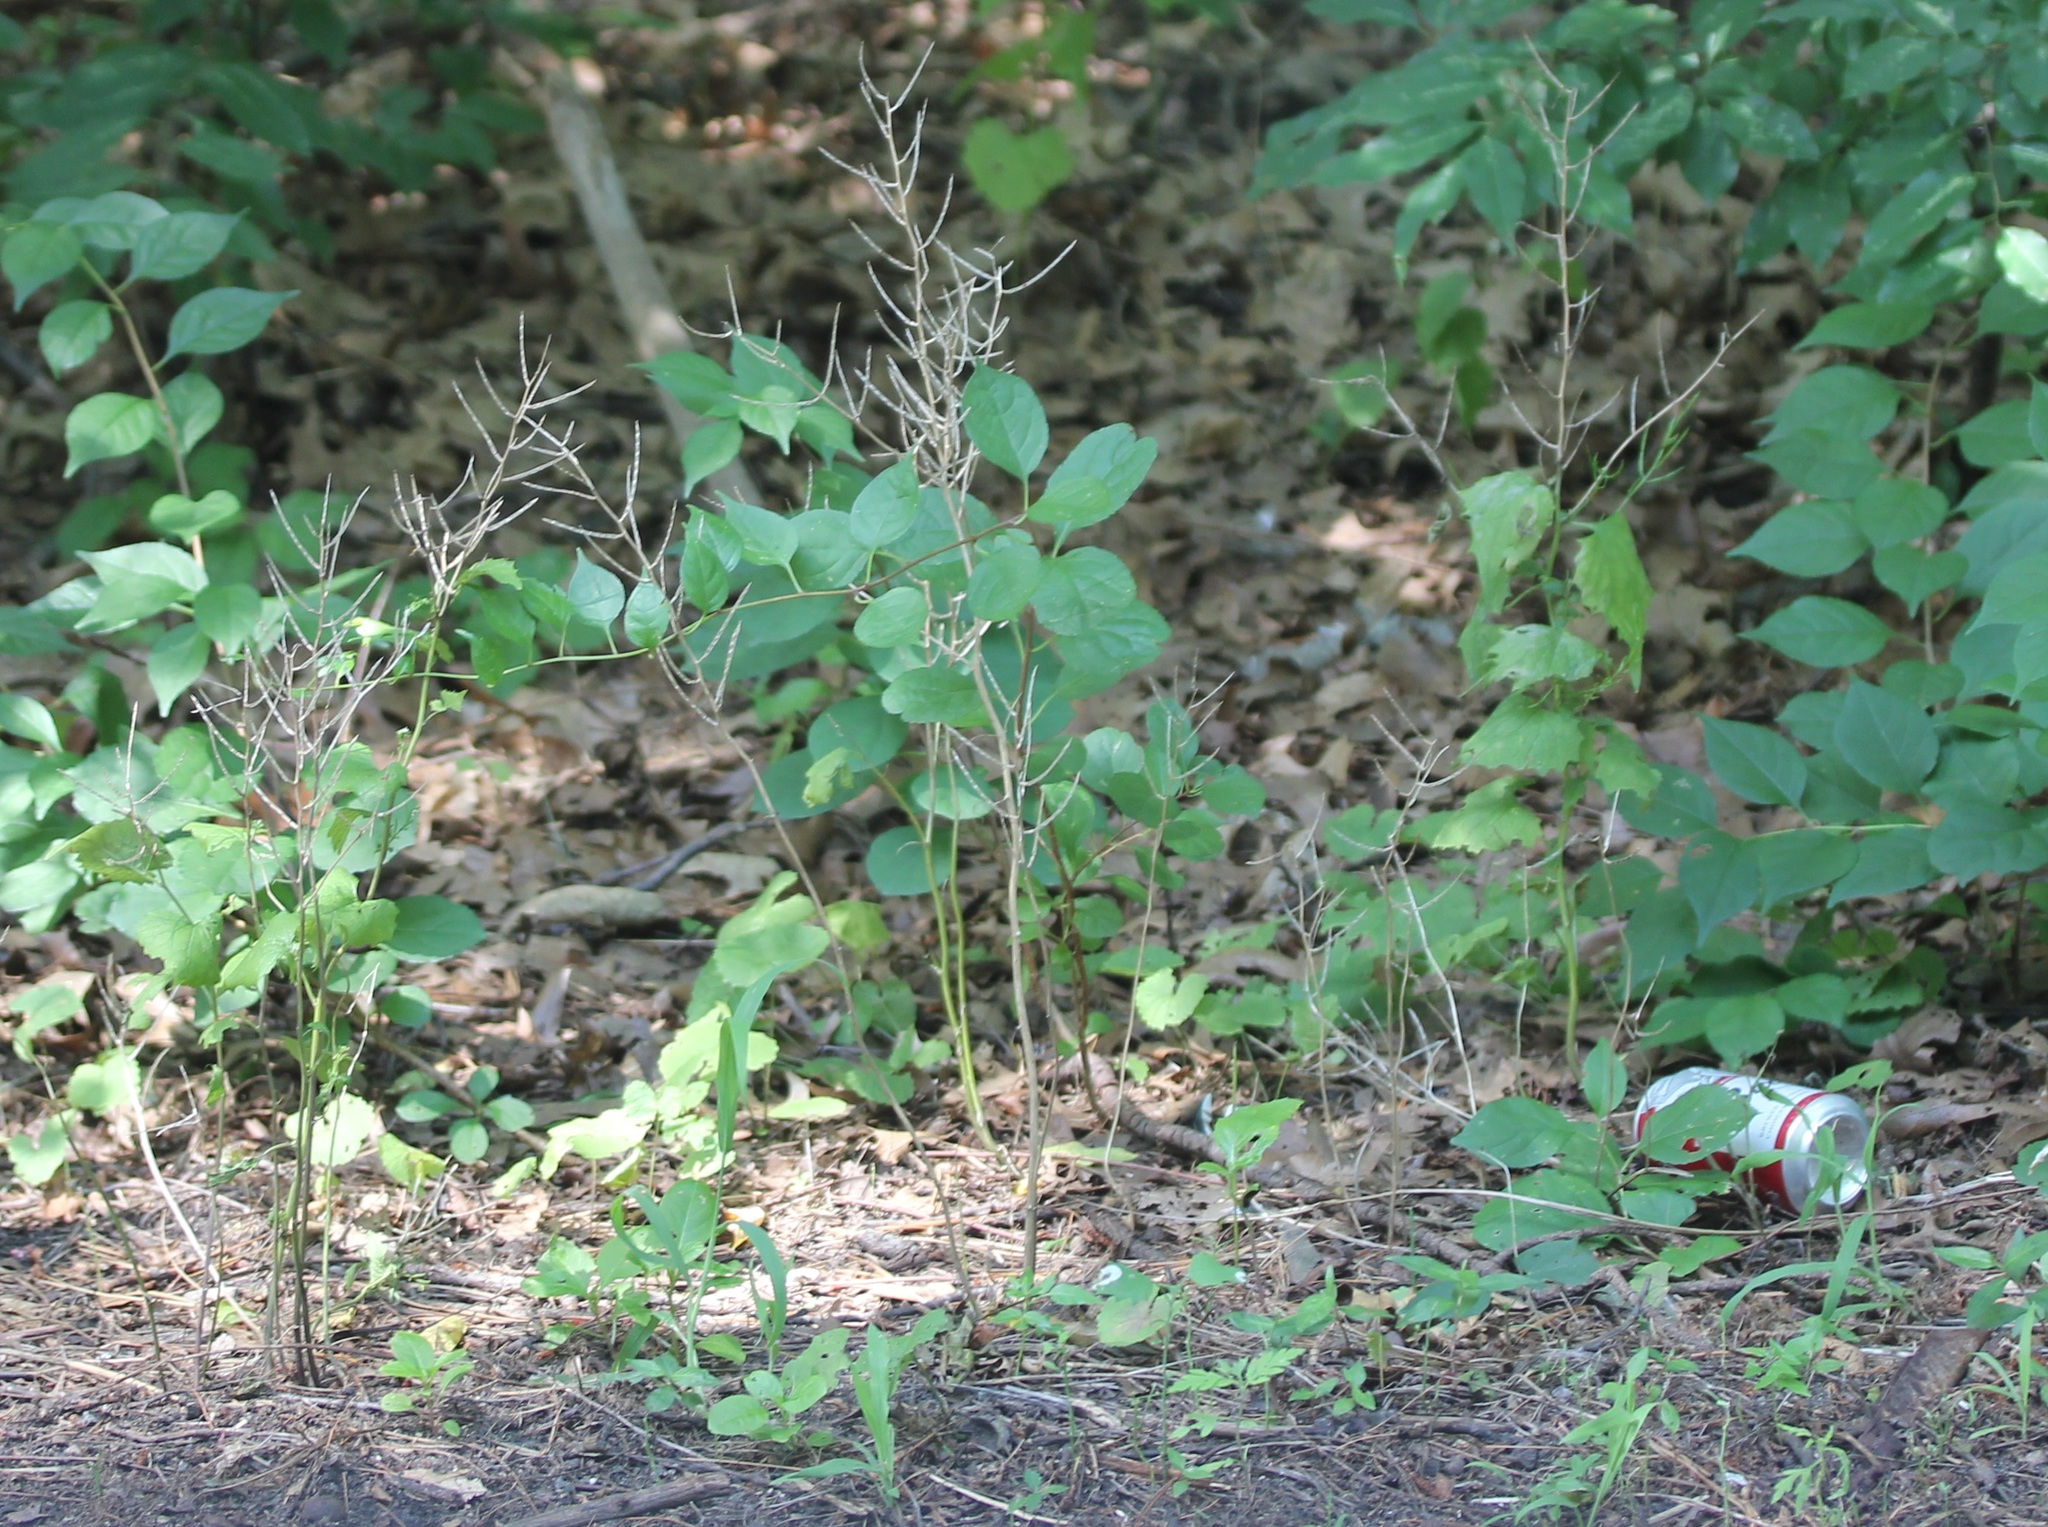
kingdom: Plantae
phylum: Tracheophyta
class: Magnoliopsida
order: Brassicales
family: Brassicaceae
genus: Alliaria
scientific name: Alliaria petiolata
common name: Garlic mustard
